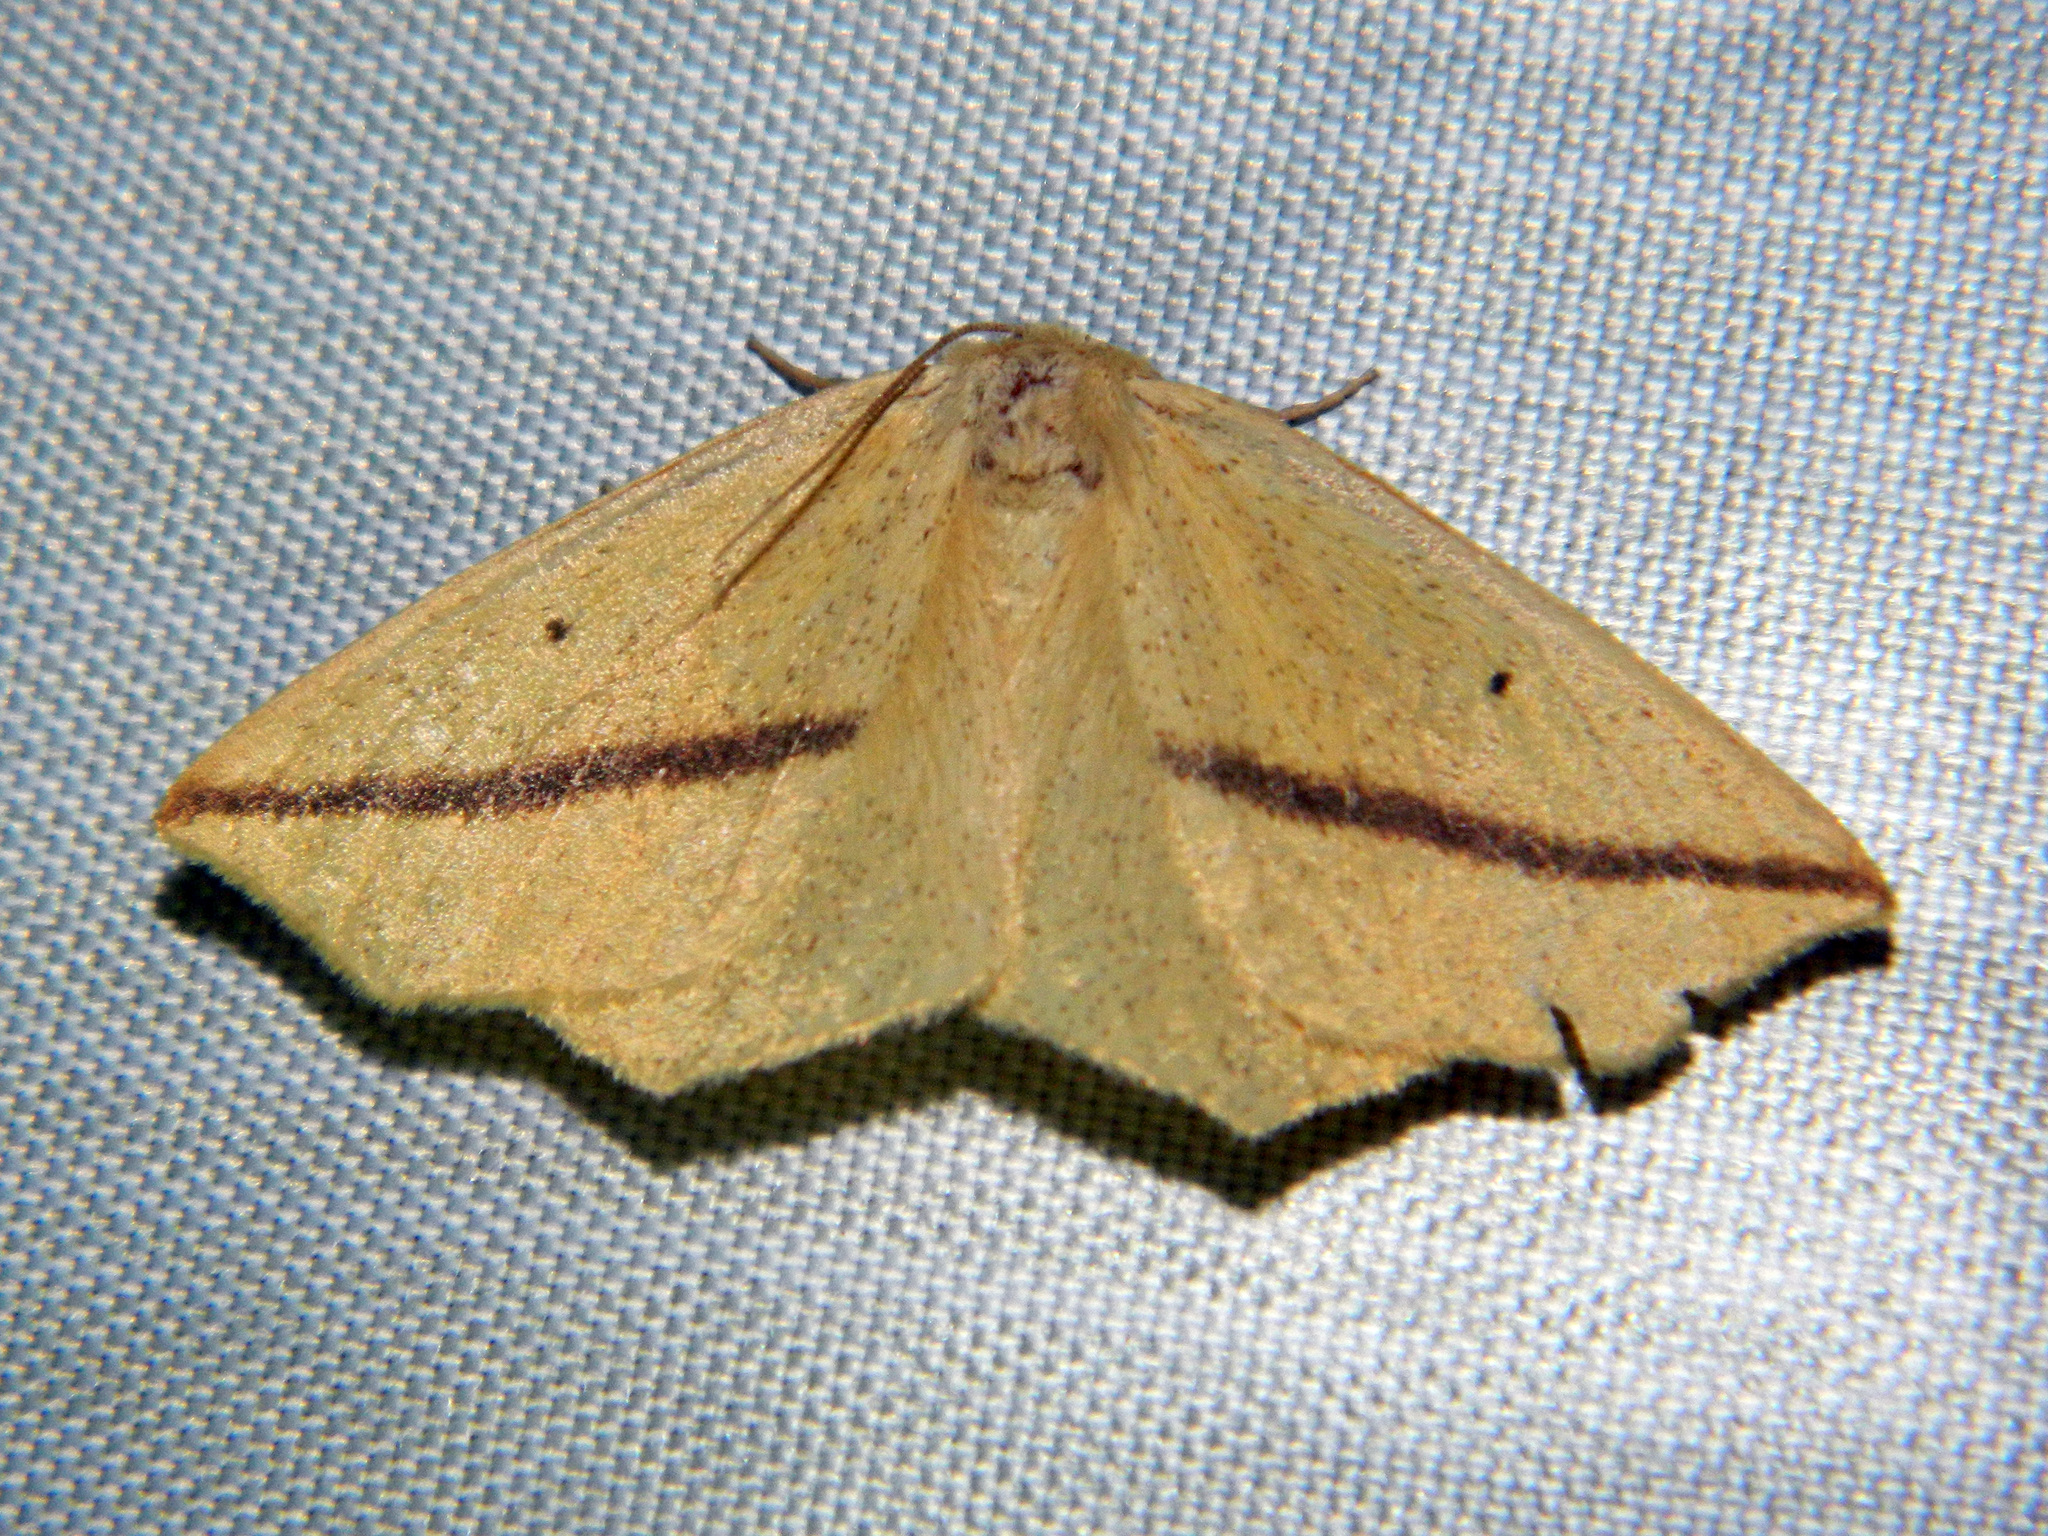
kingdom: Animalia
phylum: Arthropoda
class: Insecta
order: Lepidoptera
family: Geometridae
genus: Tetracis
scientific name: Tetracis crocallata
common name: Yellow slant-line
